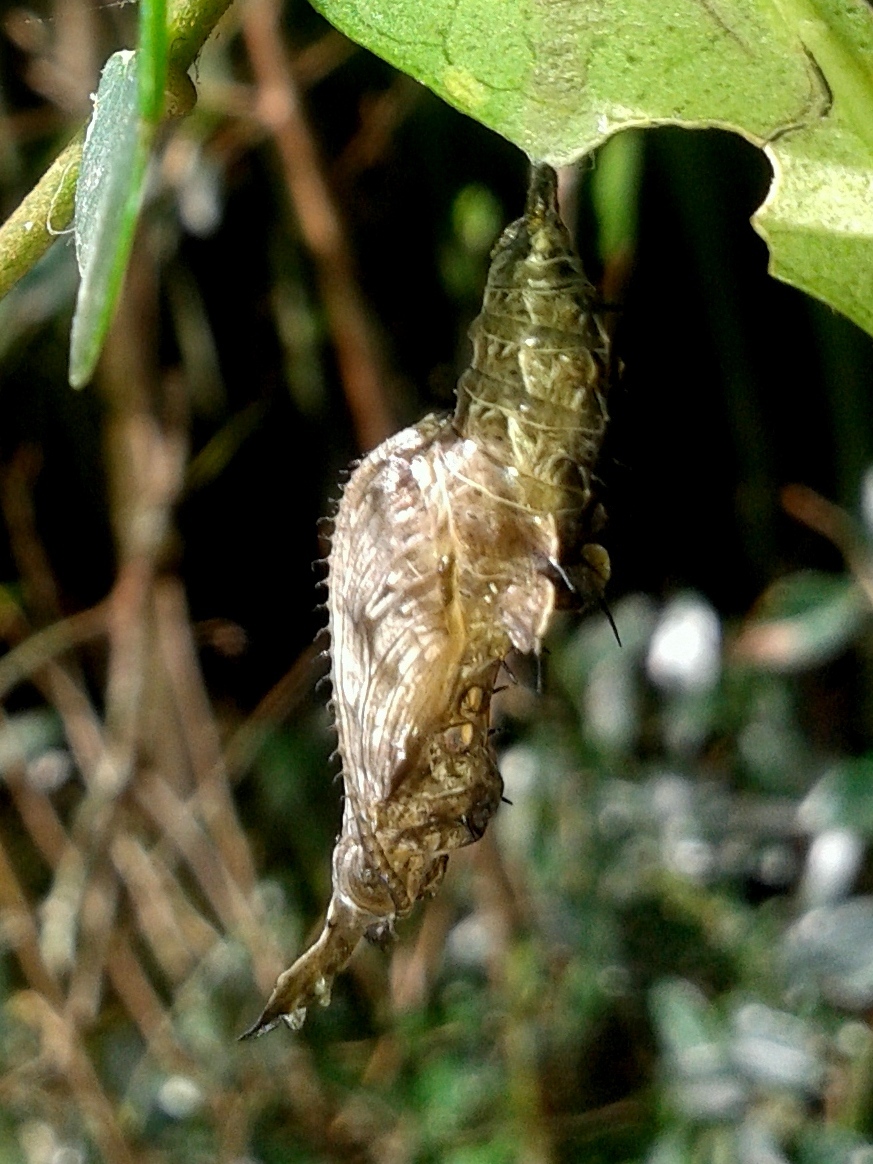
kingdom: Animalia
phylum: Arthropoda
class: Insecta
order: Lepidoptera
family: Nymphalidae
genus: Heliconius
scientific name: Heliconius erato
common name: Common patch longwing
